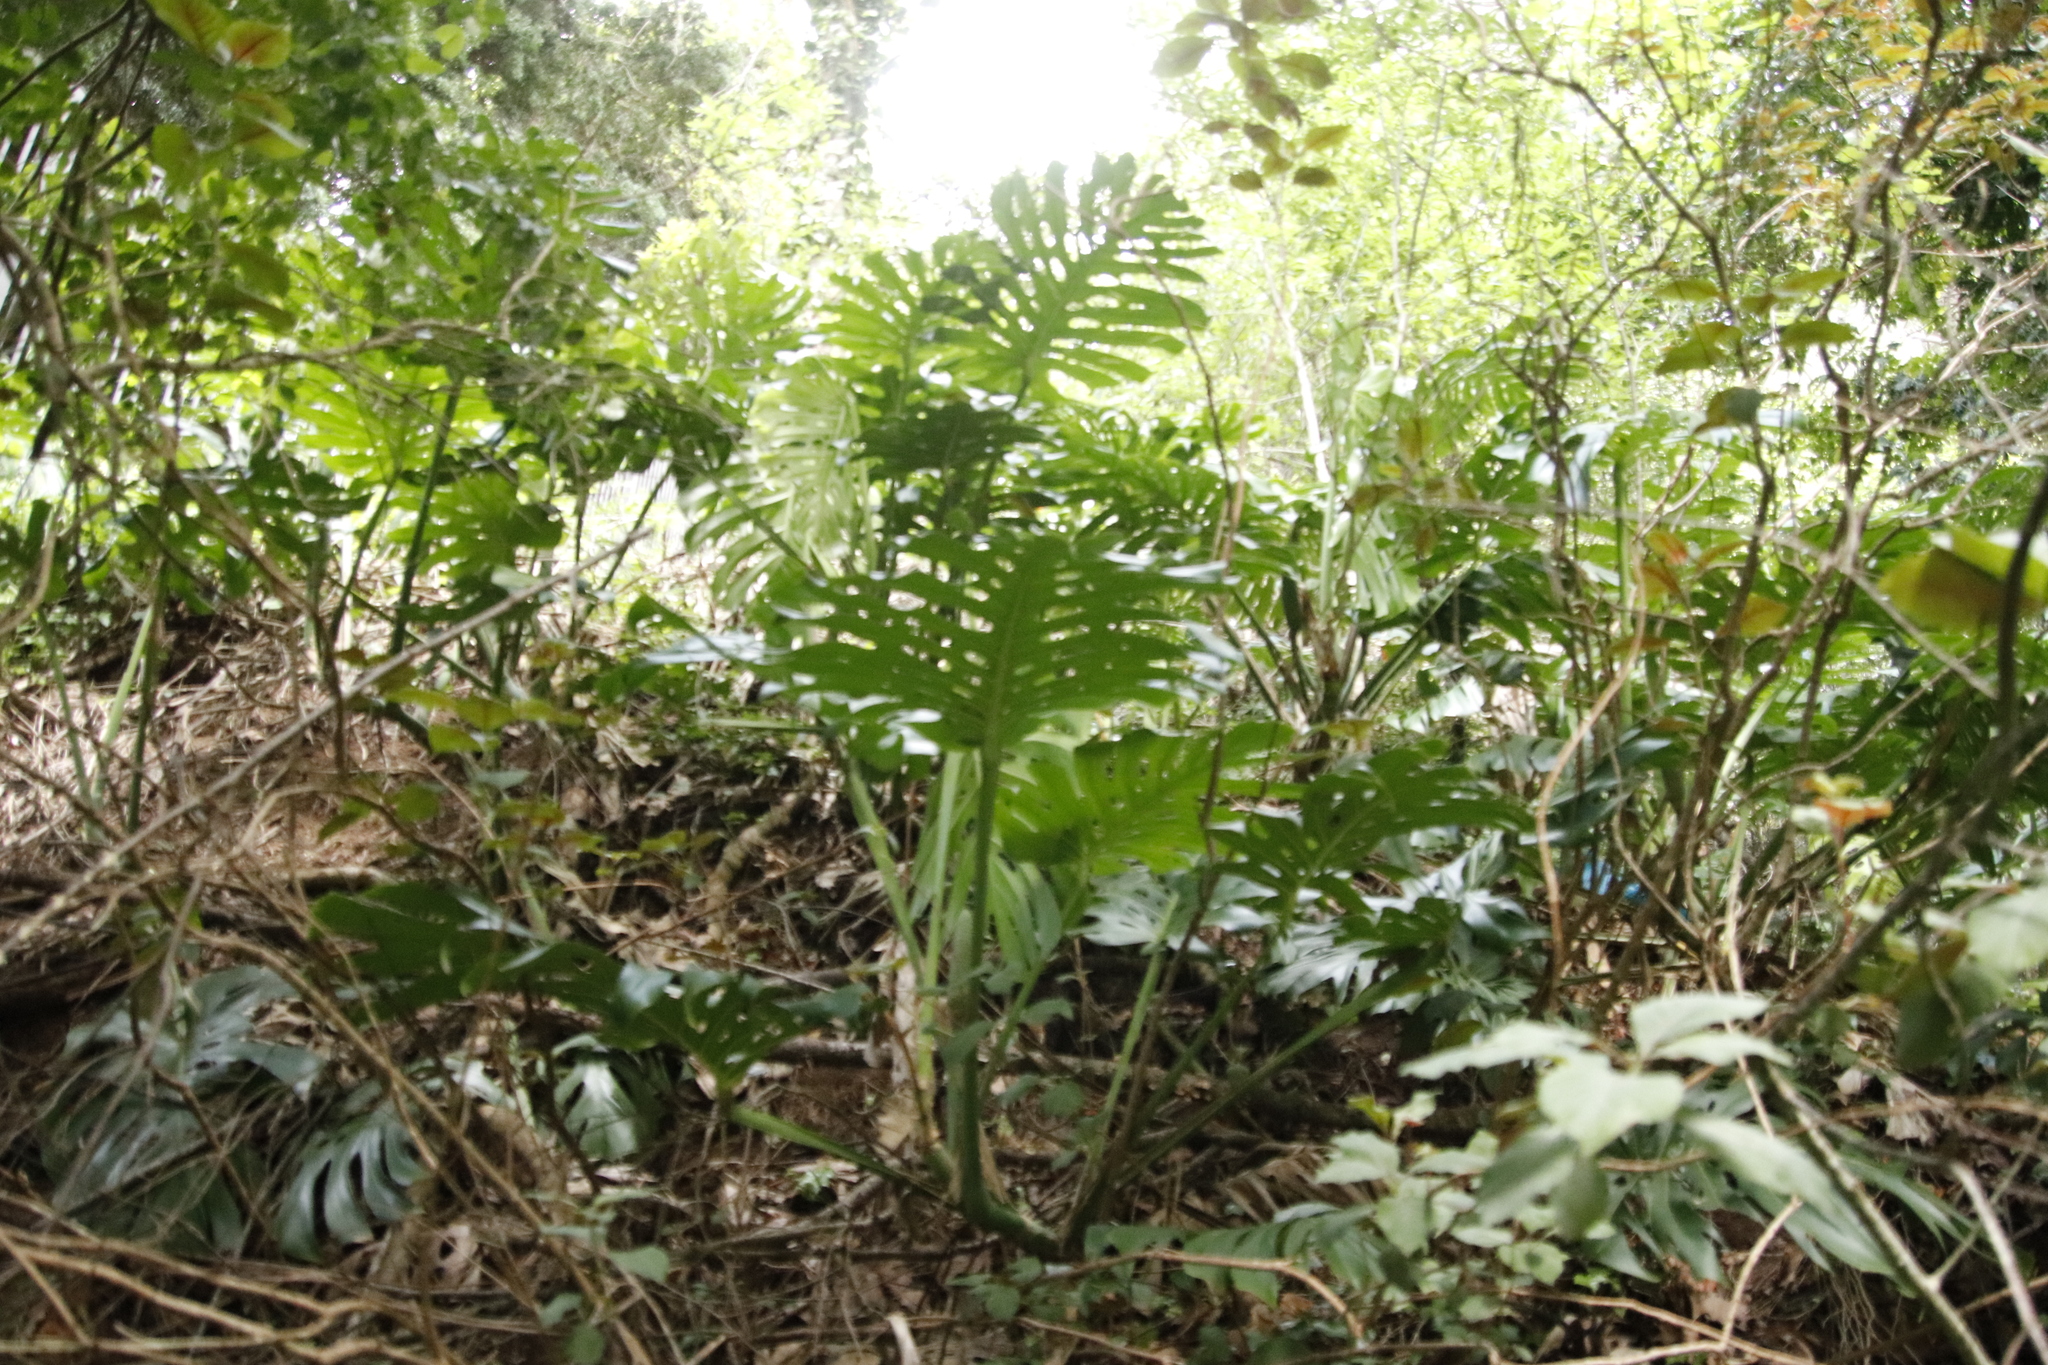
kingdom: Plantae
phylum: Tracheophyta
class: Liliopsida
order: Alismatales
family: Araceae
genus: Monstera
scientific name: Monstera deliciosa
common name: Cut-leaf-philodendron
